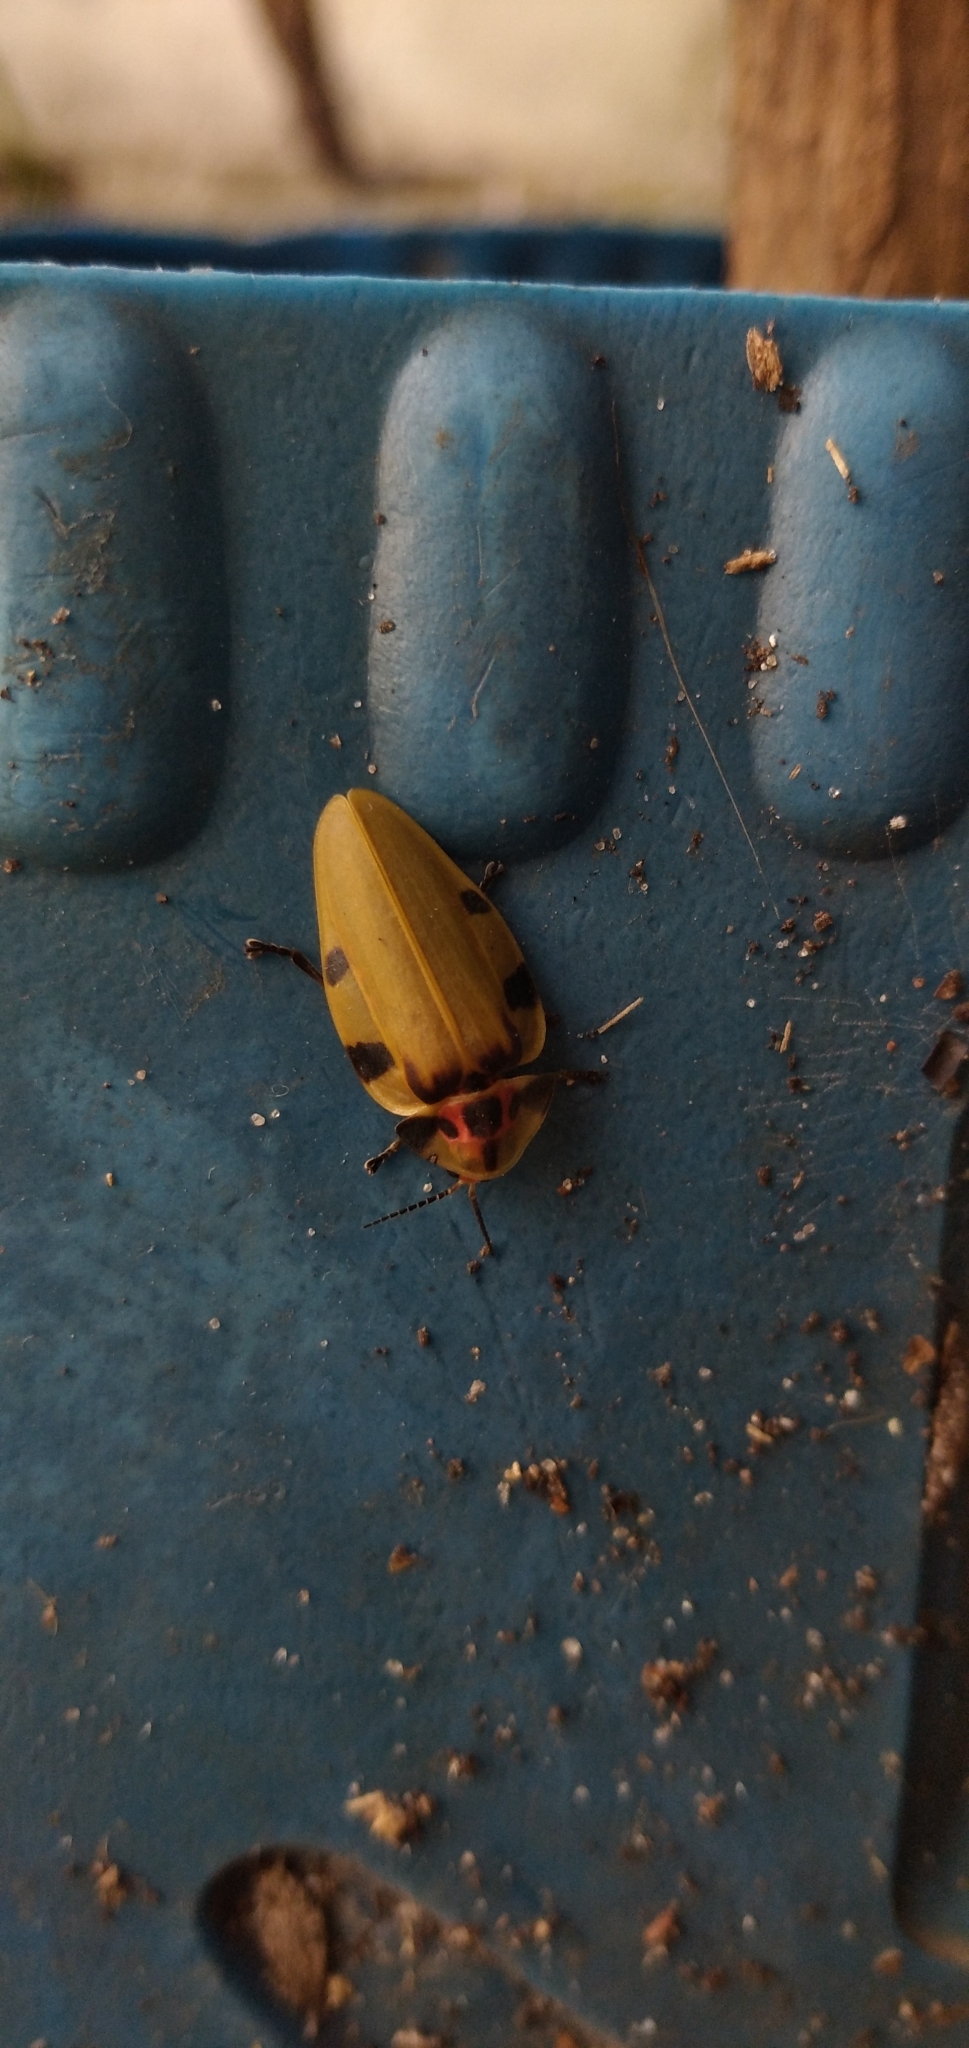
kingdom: Animalia
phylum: Arthropoda
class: Insecta
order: Coleoptera
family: Lampyridae
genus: Aspisoma
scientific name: Aspisoma sticticum
